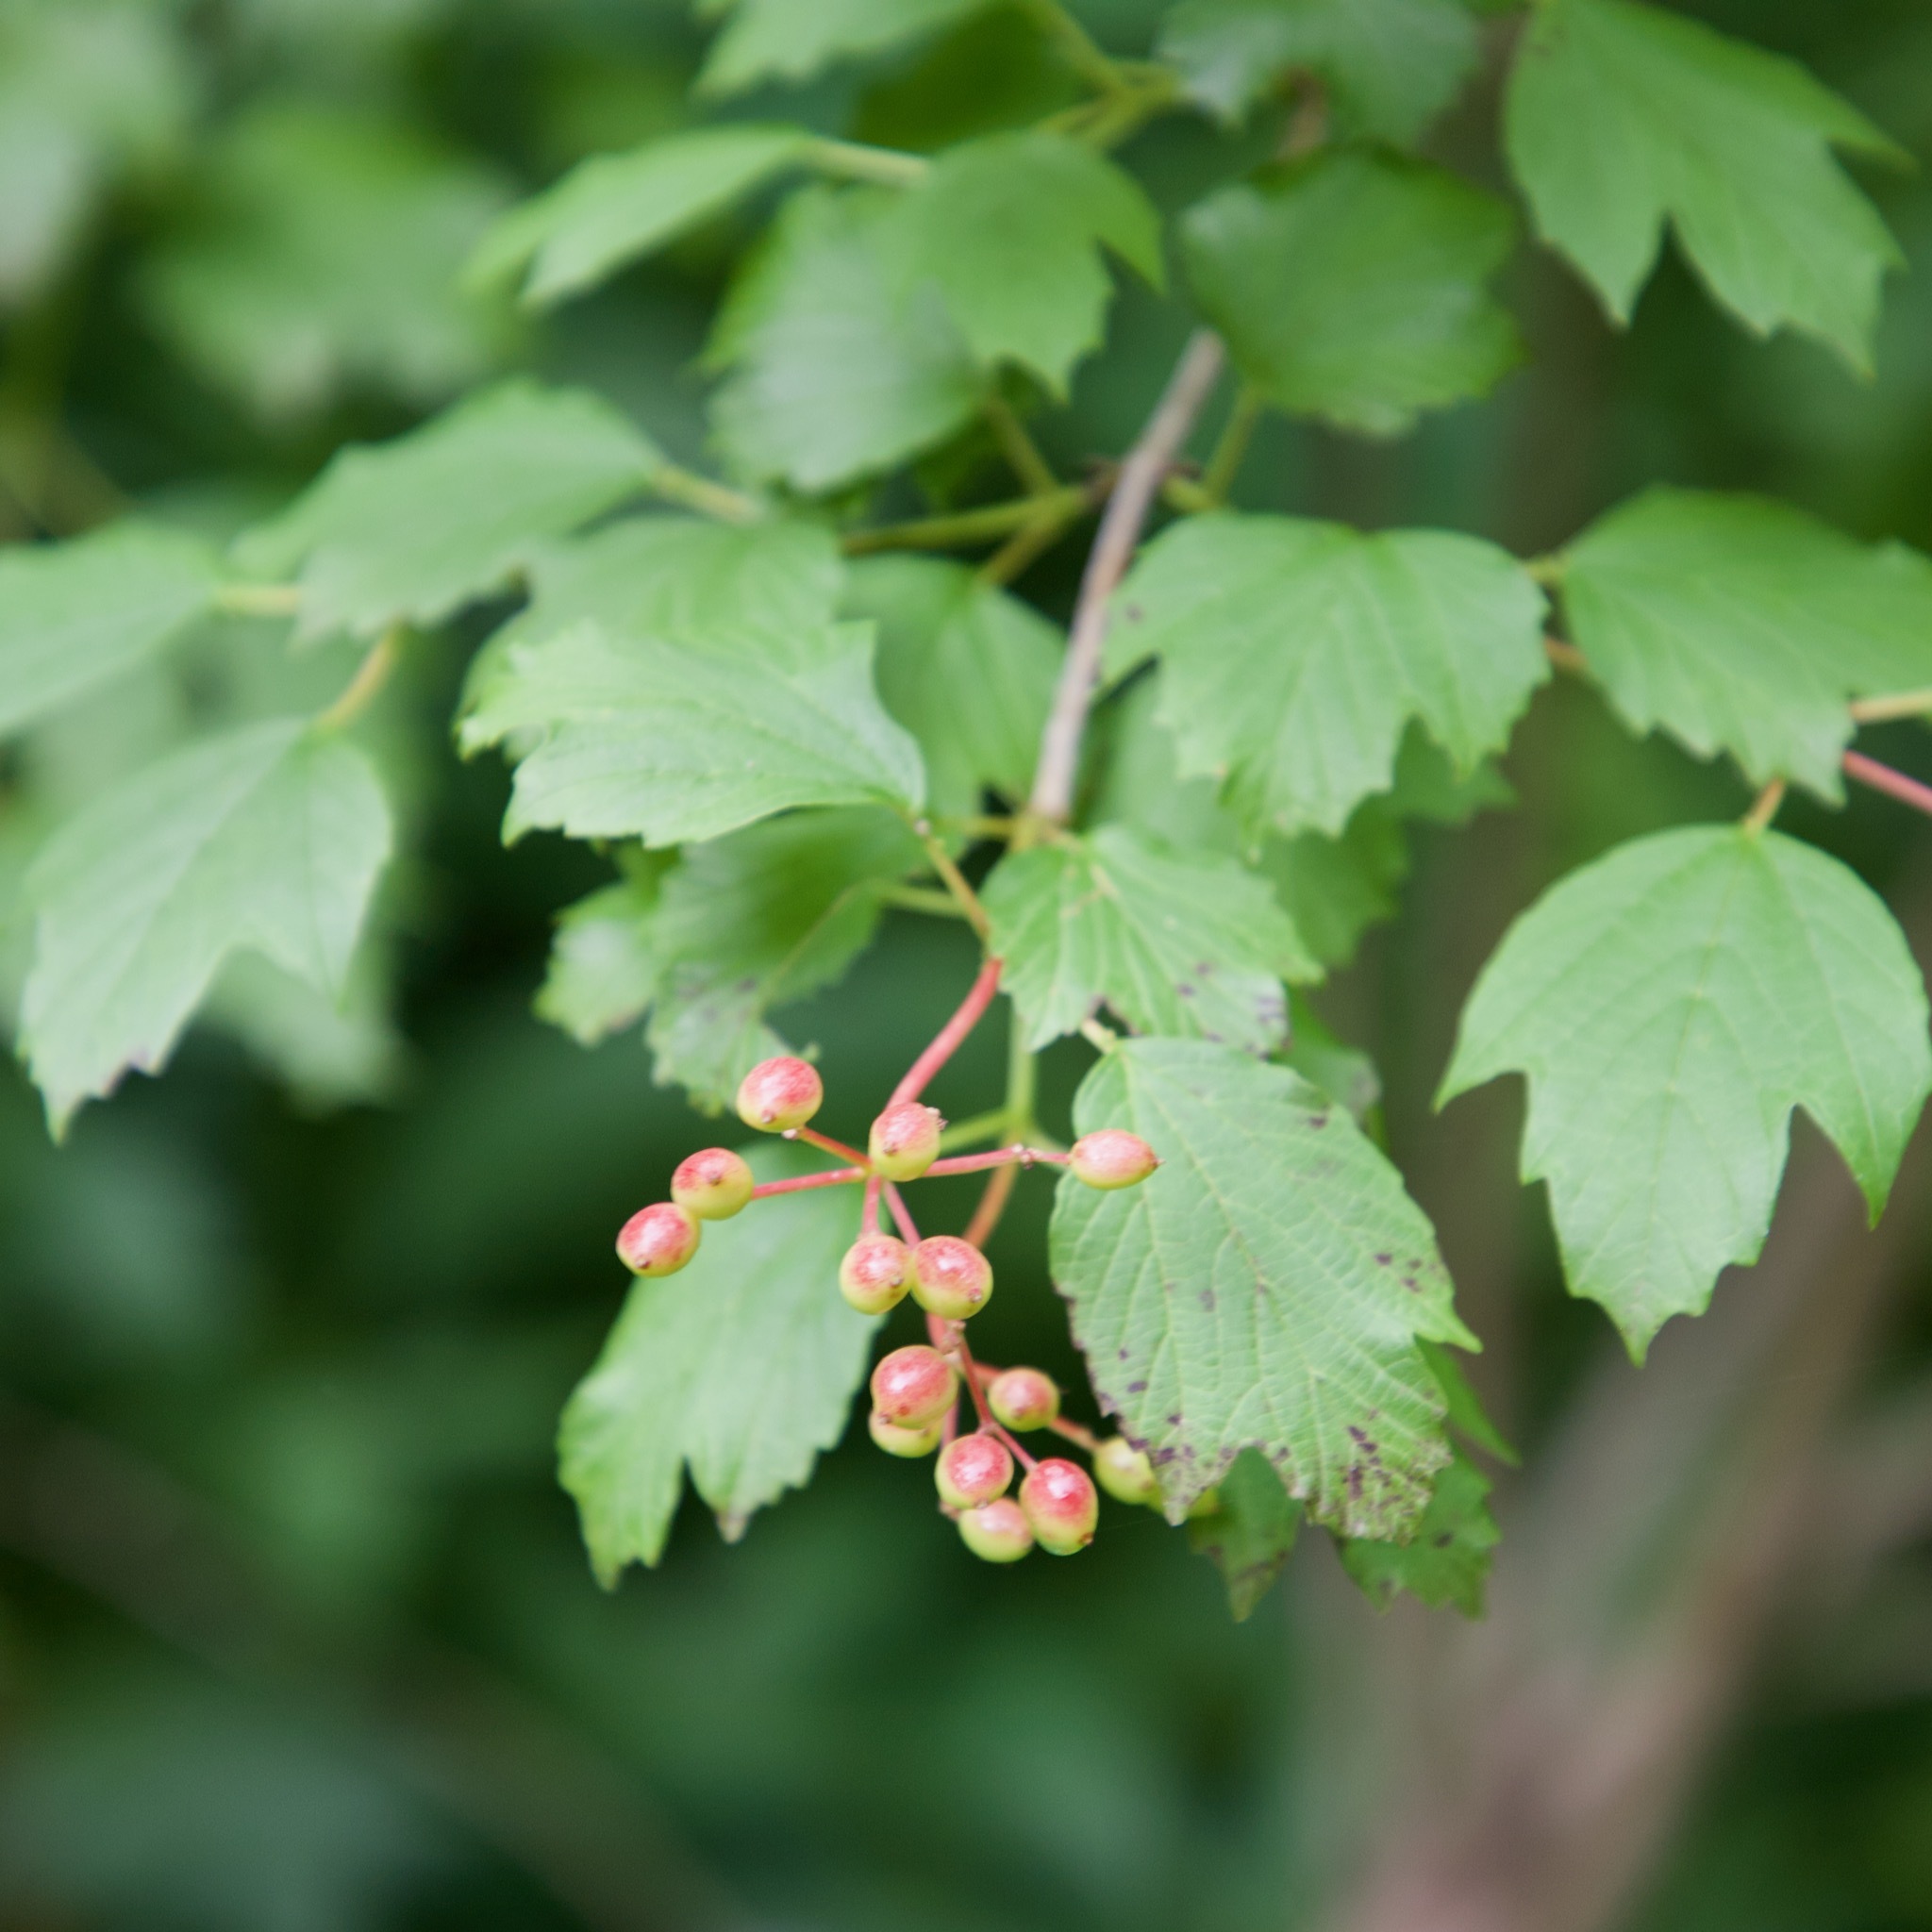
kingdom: Plantae
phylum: Tracheophyta
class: Magnoliopsida
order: Dipsacales
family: Viburnaceae
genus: Viburnum
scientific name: Viburnum opulus
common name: Guelder-rose
